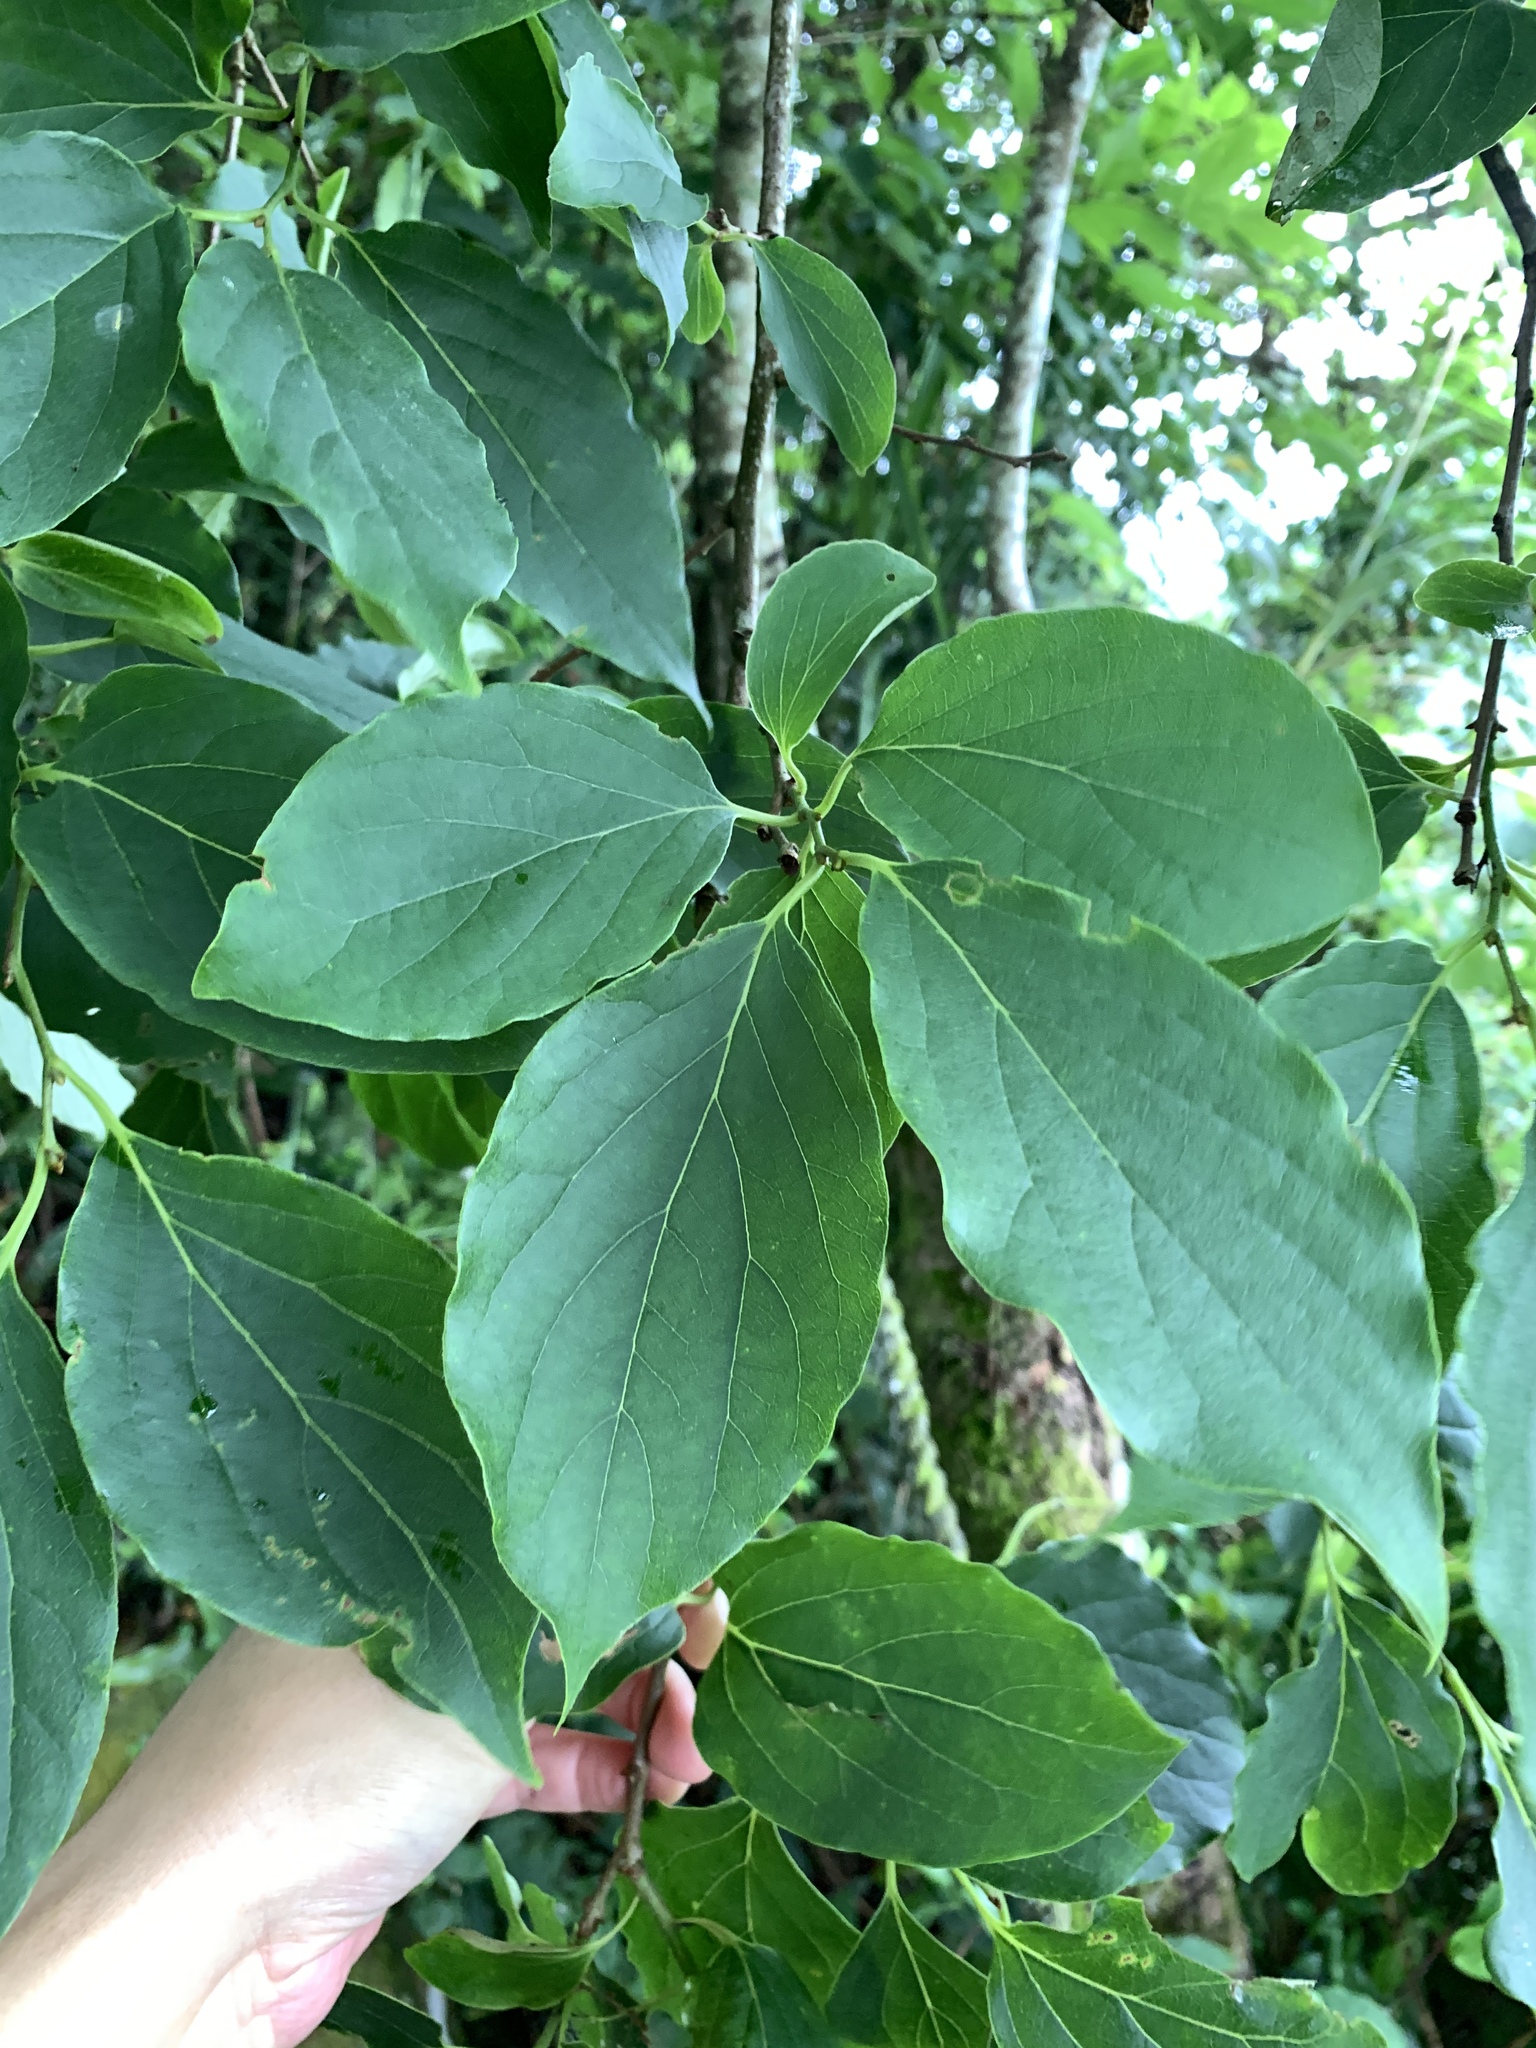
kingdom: Plantae
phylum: Tracheophyta
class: Magnoliopsida
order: Ericales
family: Ebenaceae
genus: Diospyros
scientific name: Diospyros oldhamii
